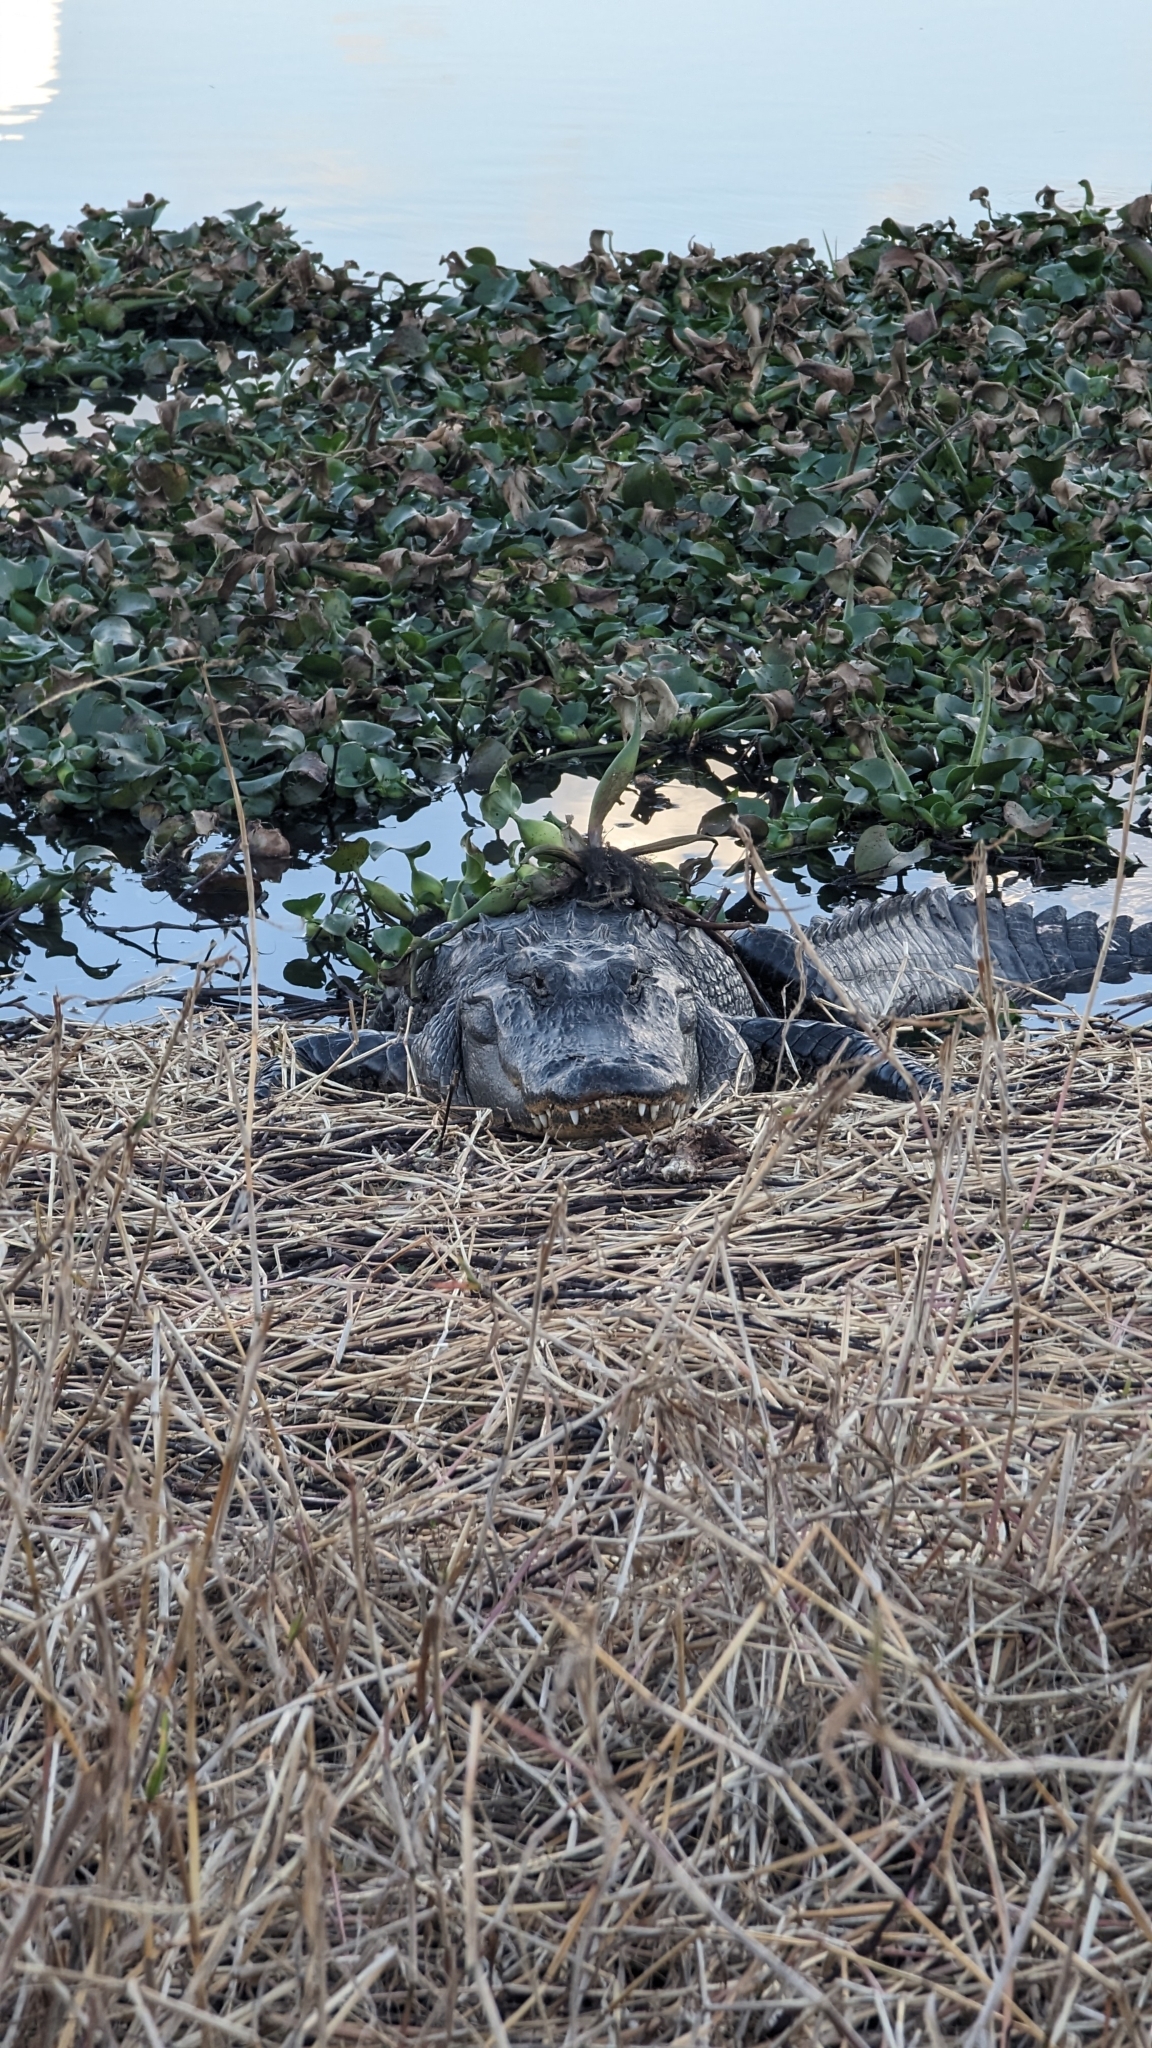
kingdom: Animalia
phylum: Chordata
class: Crocodylia
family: Alligatoridae
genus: Alligator
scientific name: Alligator mississippiensis
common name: American alligator
